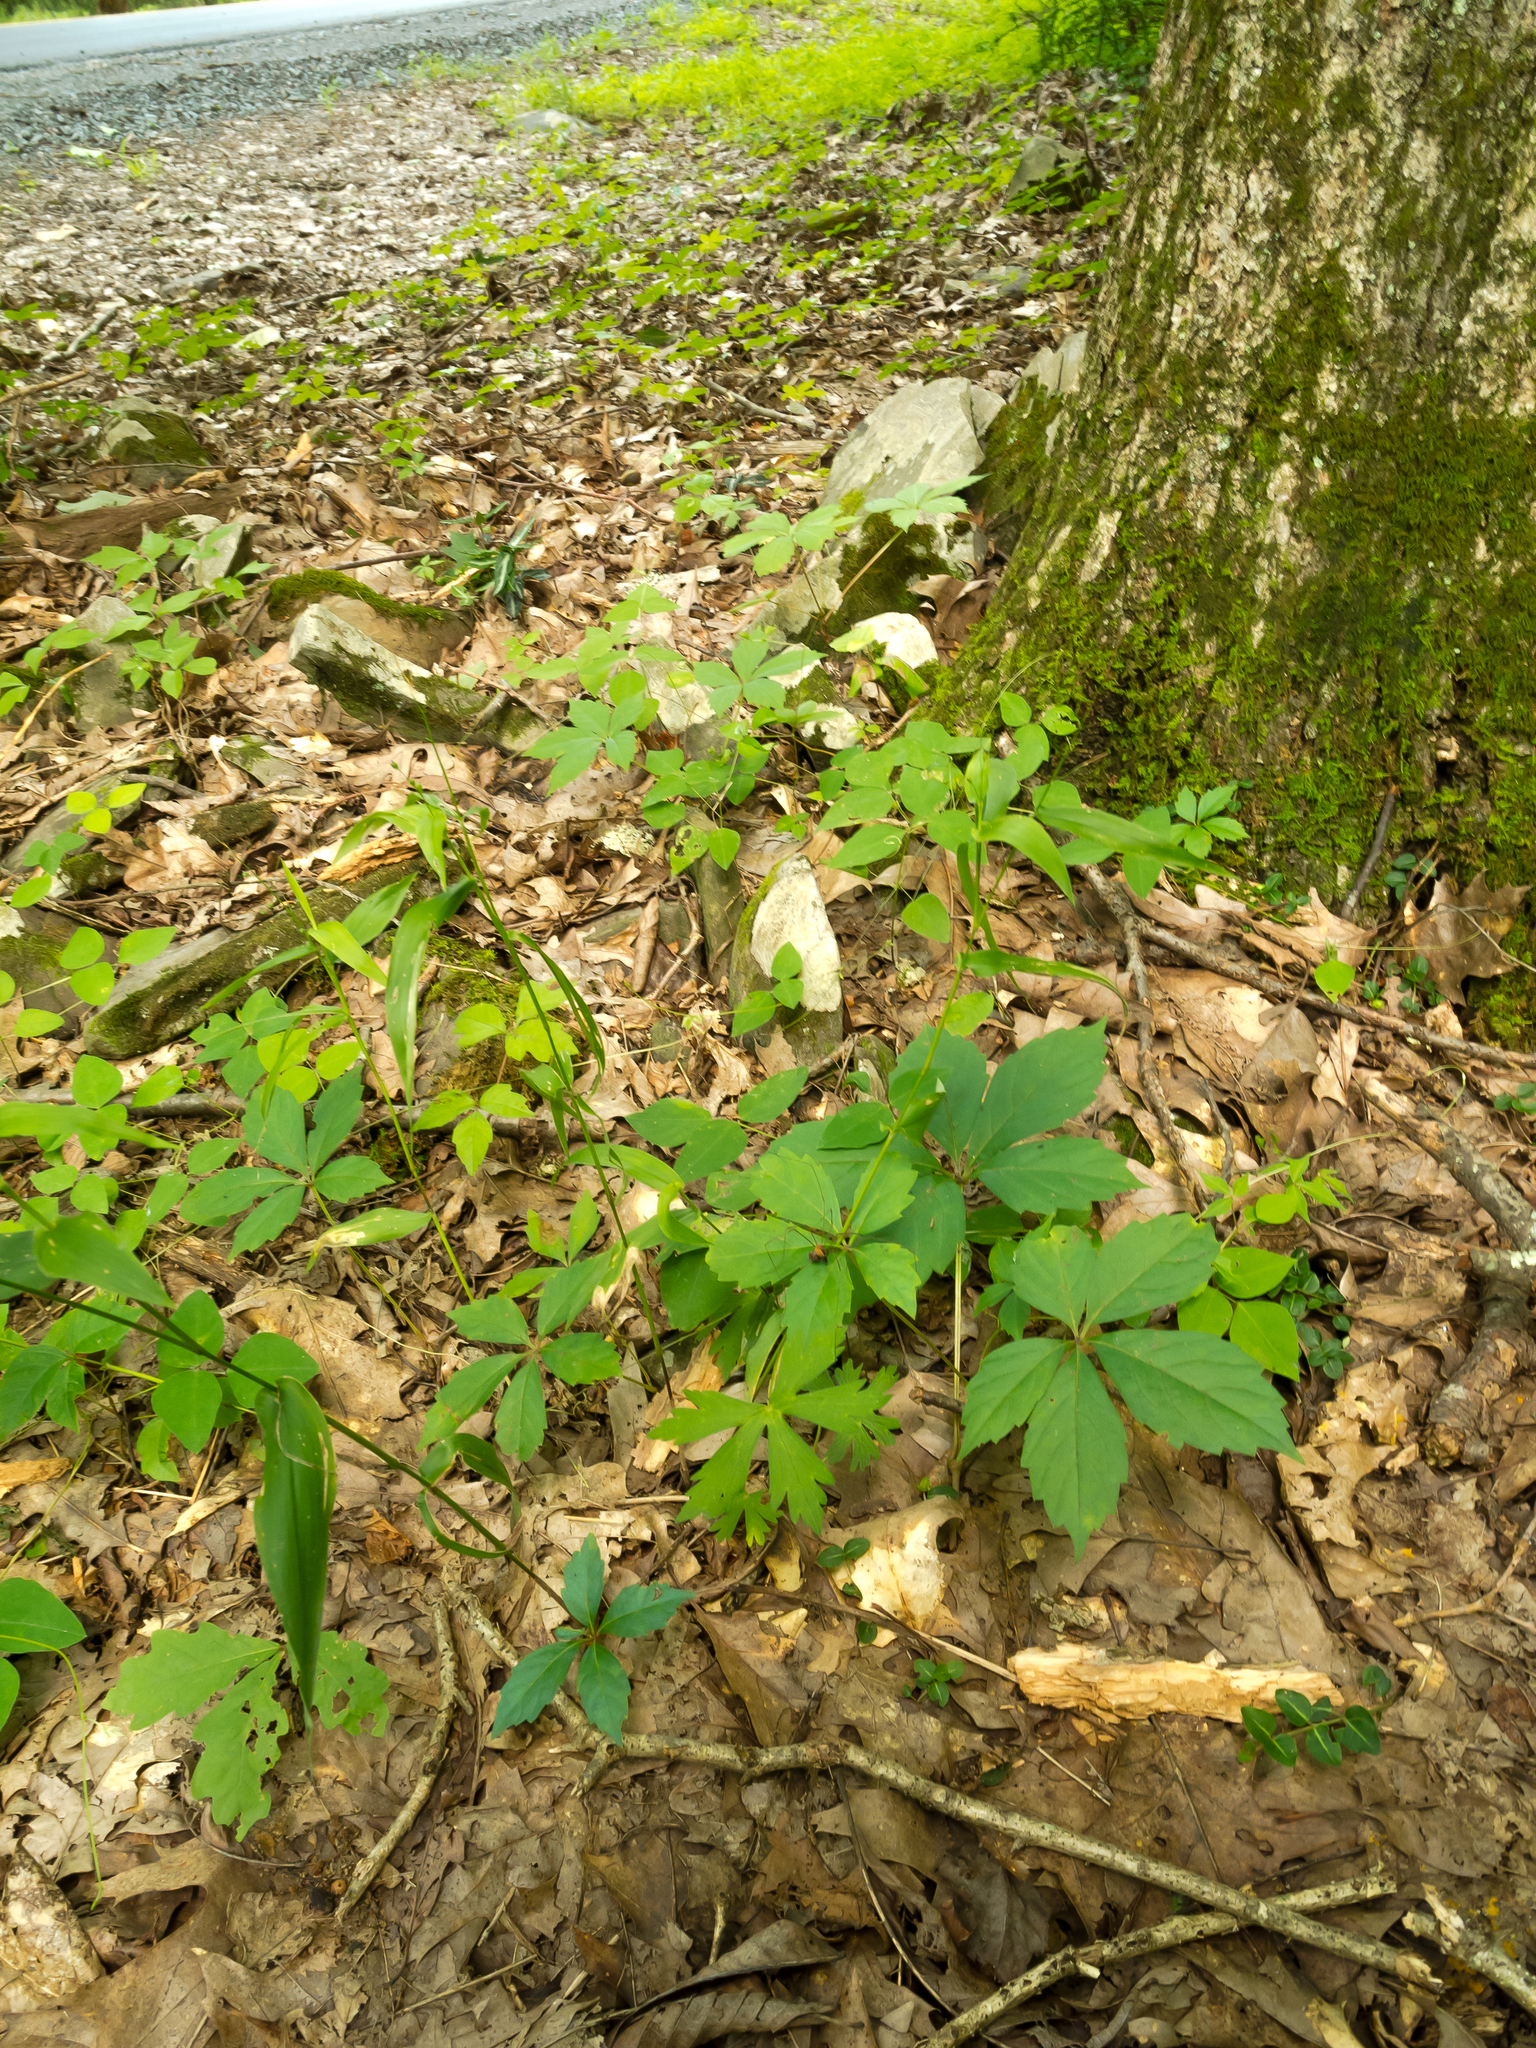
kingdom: Plantae
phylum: Tracheophyta
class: Magnoliopsida
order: Vitales
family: Vitaceae
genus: Parthenocissus
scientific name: Parthenocissus quinquefolia
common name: Virginia-creeper
